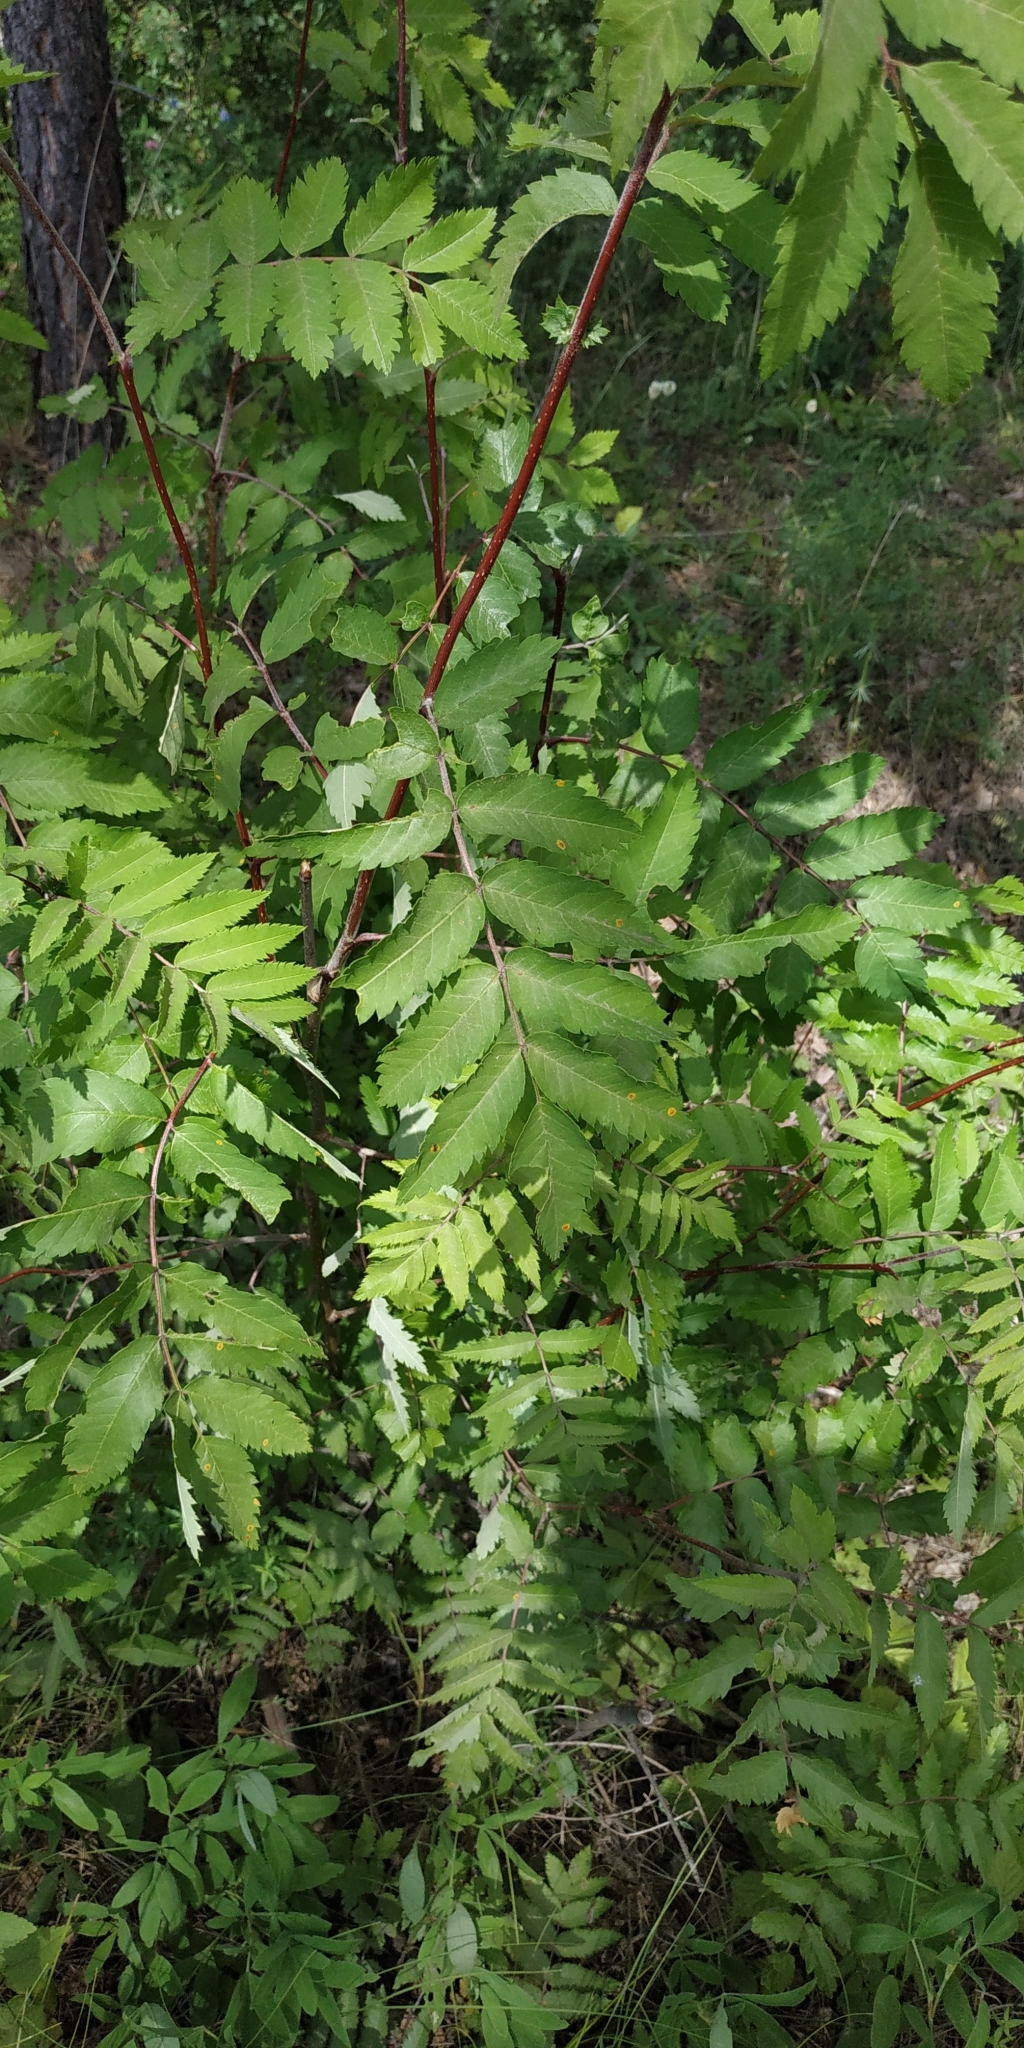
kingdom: Plantae
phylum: Tracheophyta
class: Magnoliopsida
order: Rosales
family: Rosaceae
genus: Sorbus
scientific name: Sorbus aucuparia
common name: Rowan
